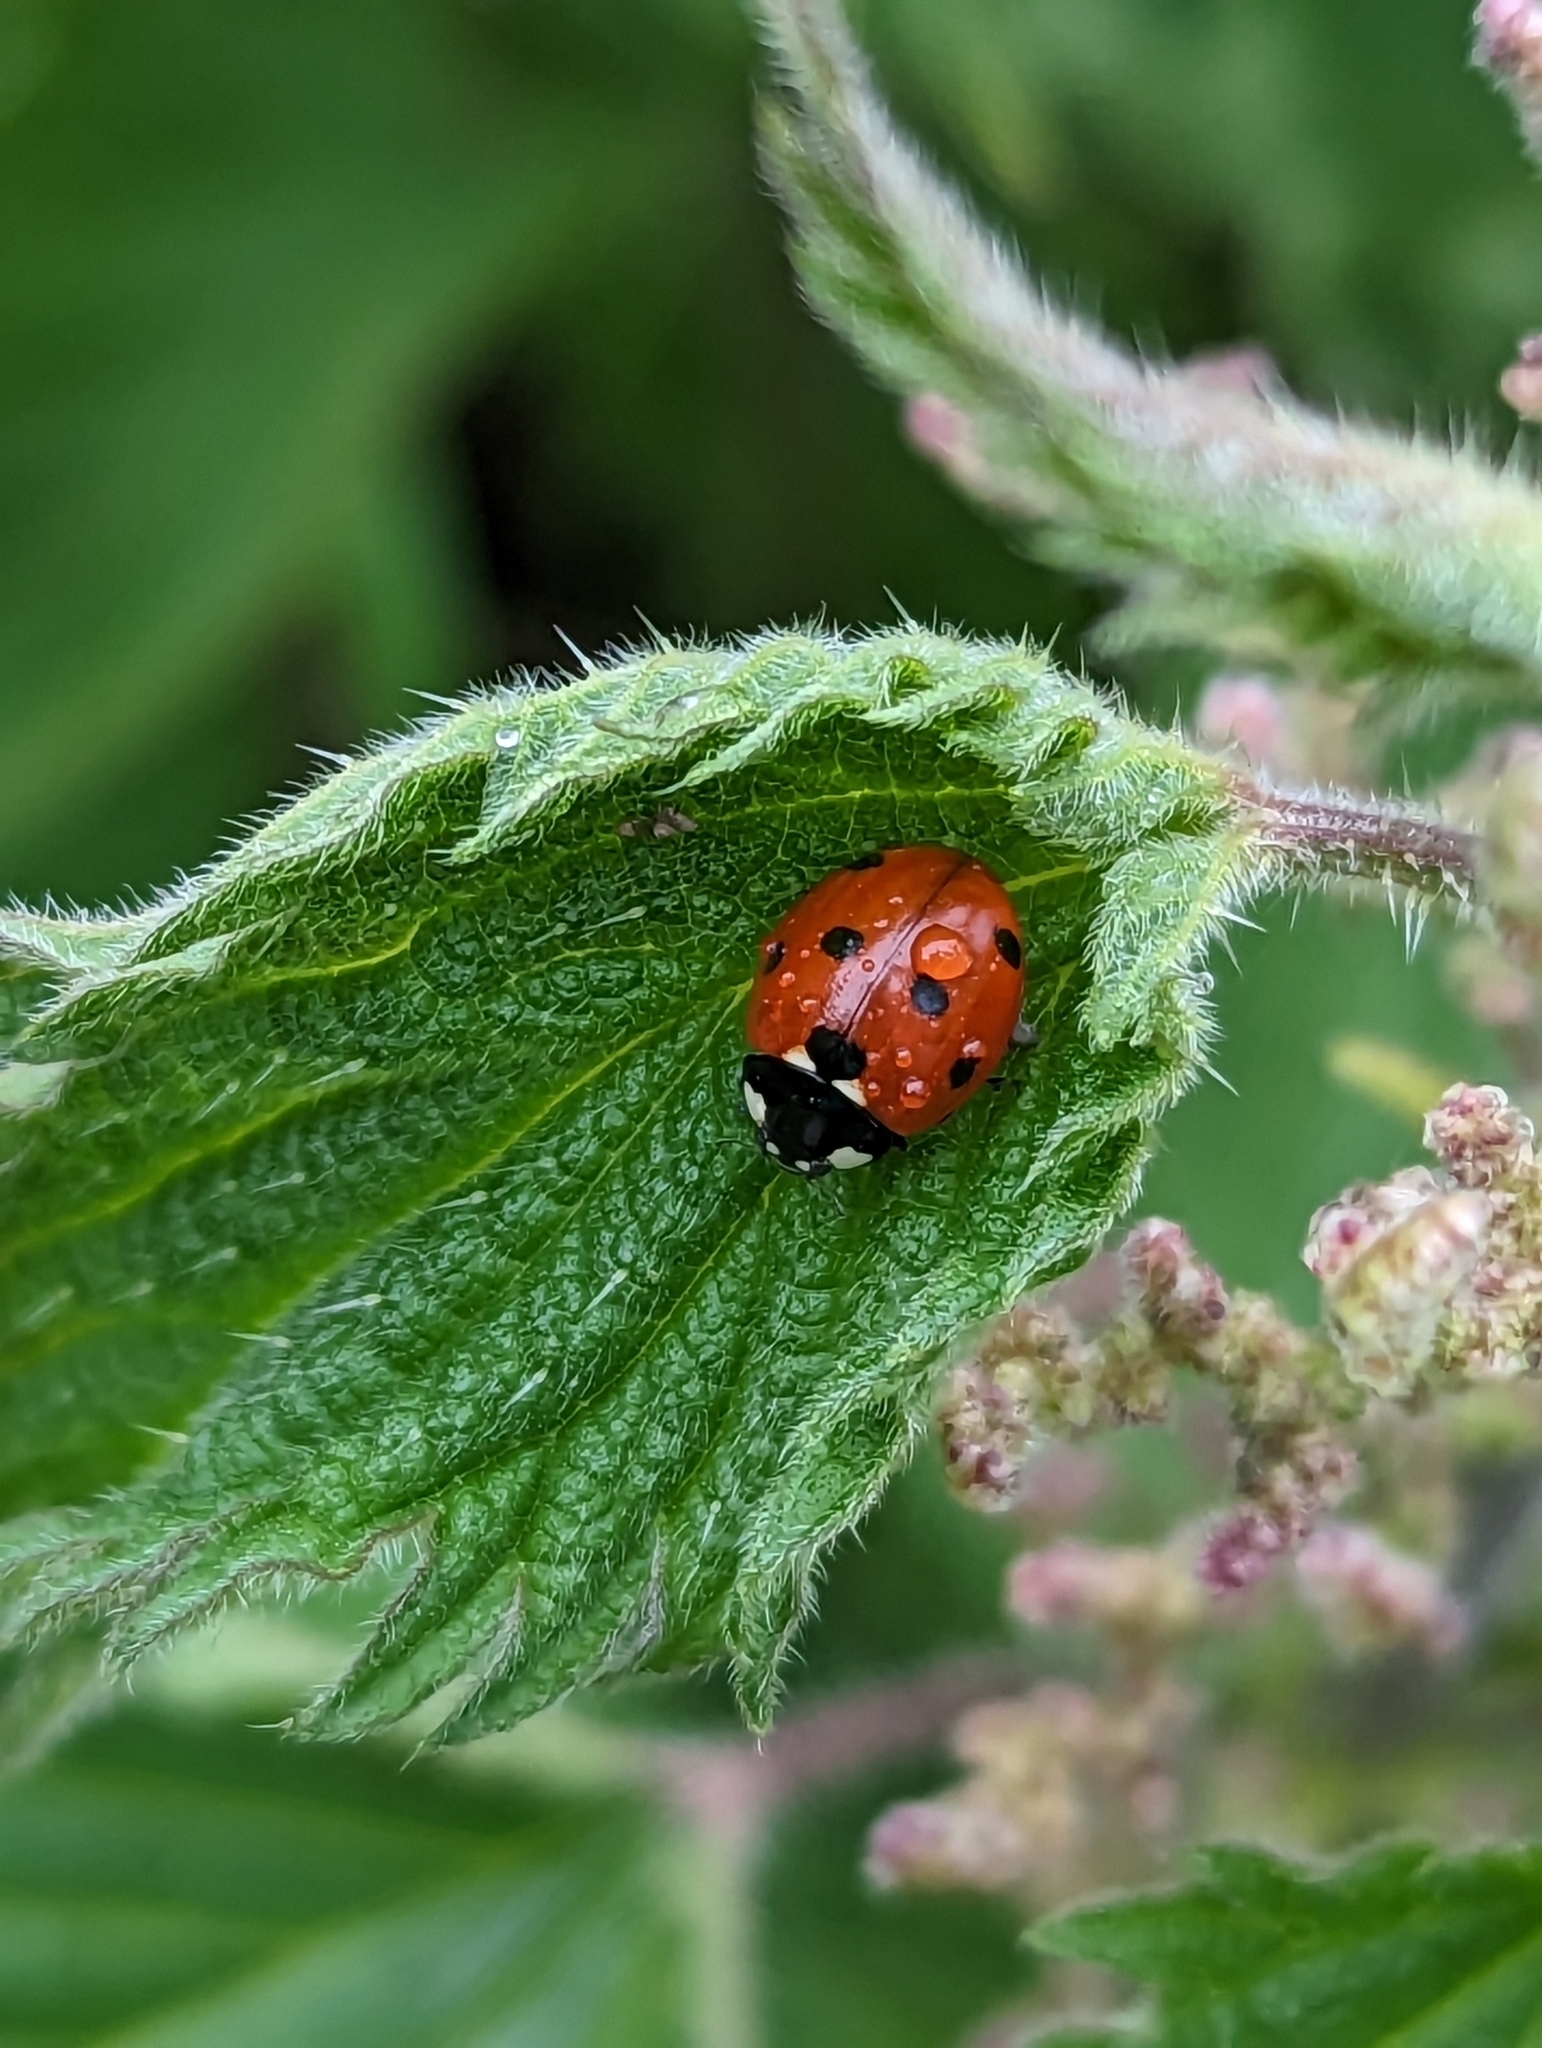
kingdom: Animalia
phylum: Arthropoda
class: Insecta
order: Coleoptera
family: Coccinellidae
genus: Coccinella
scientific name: Coccinella septempunctata
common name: Sevenspotted lady beetle
